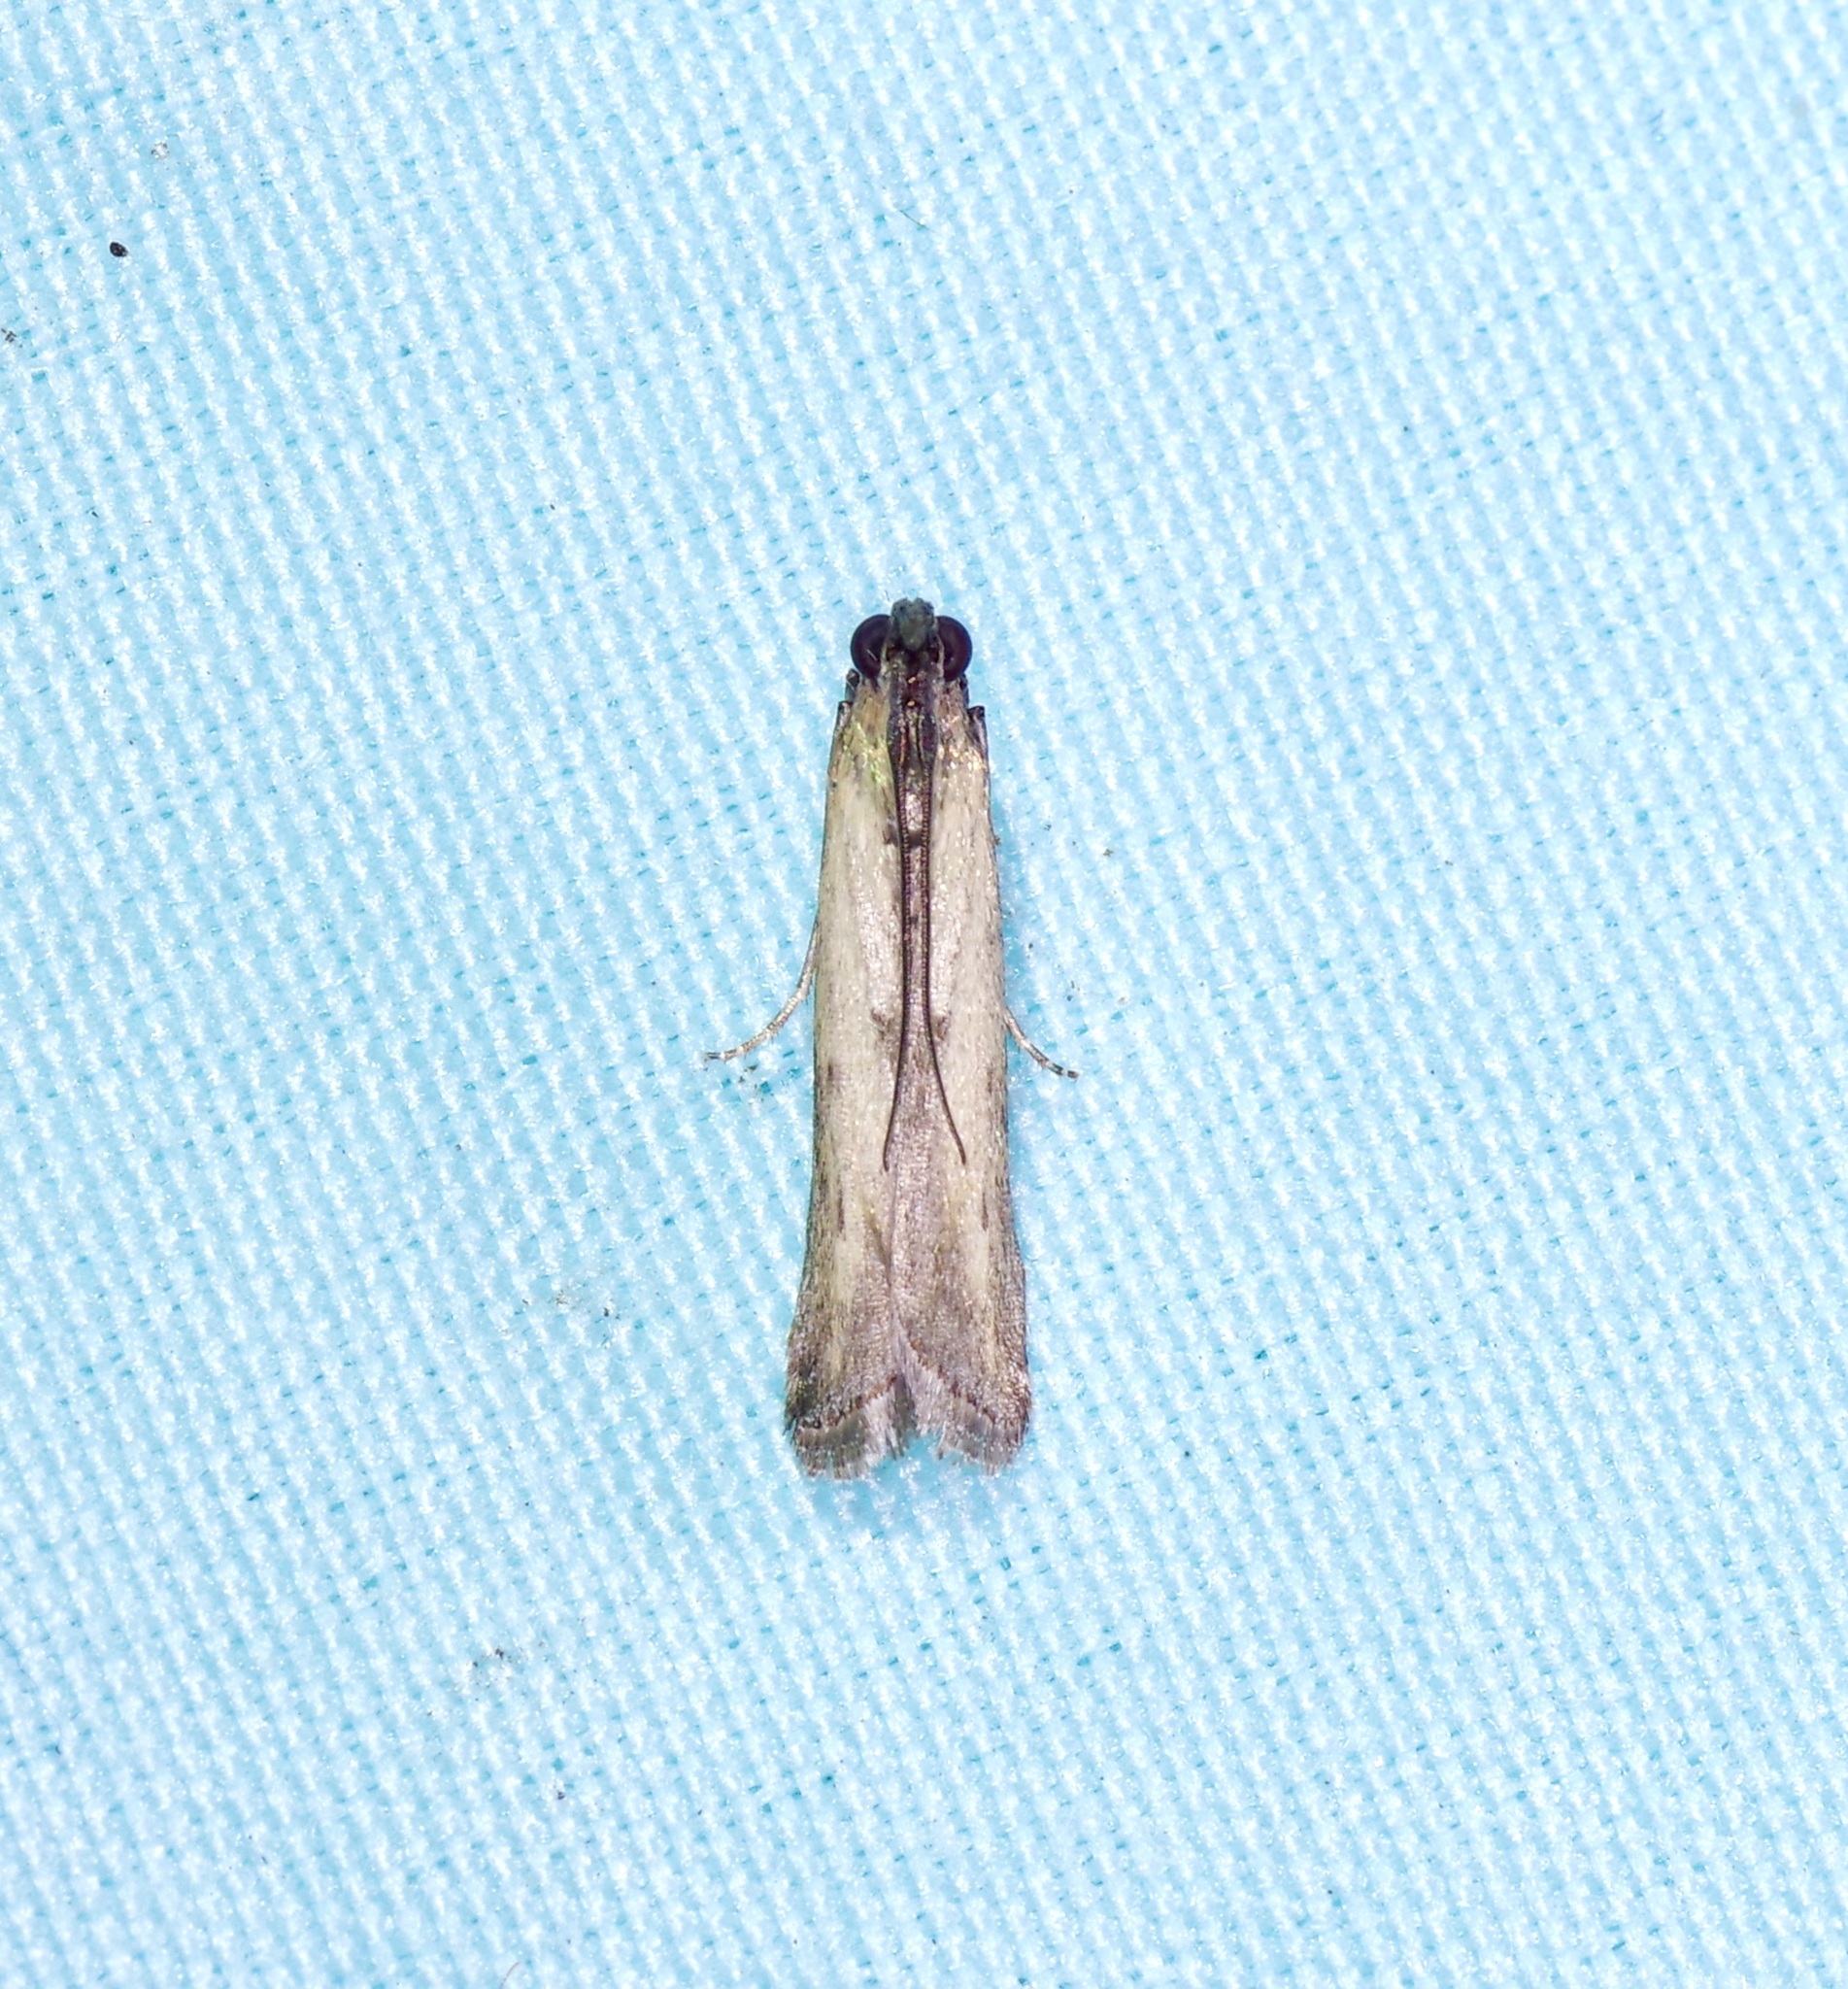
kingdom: Animalia
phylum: Arthropoda
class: Insecta
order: Lepidoptera
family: Pyralidae
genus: Elasmopalpus
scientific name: Elasmopalpus lignosella
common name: Lesser cornstalk borer
